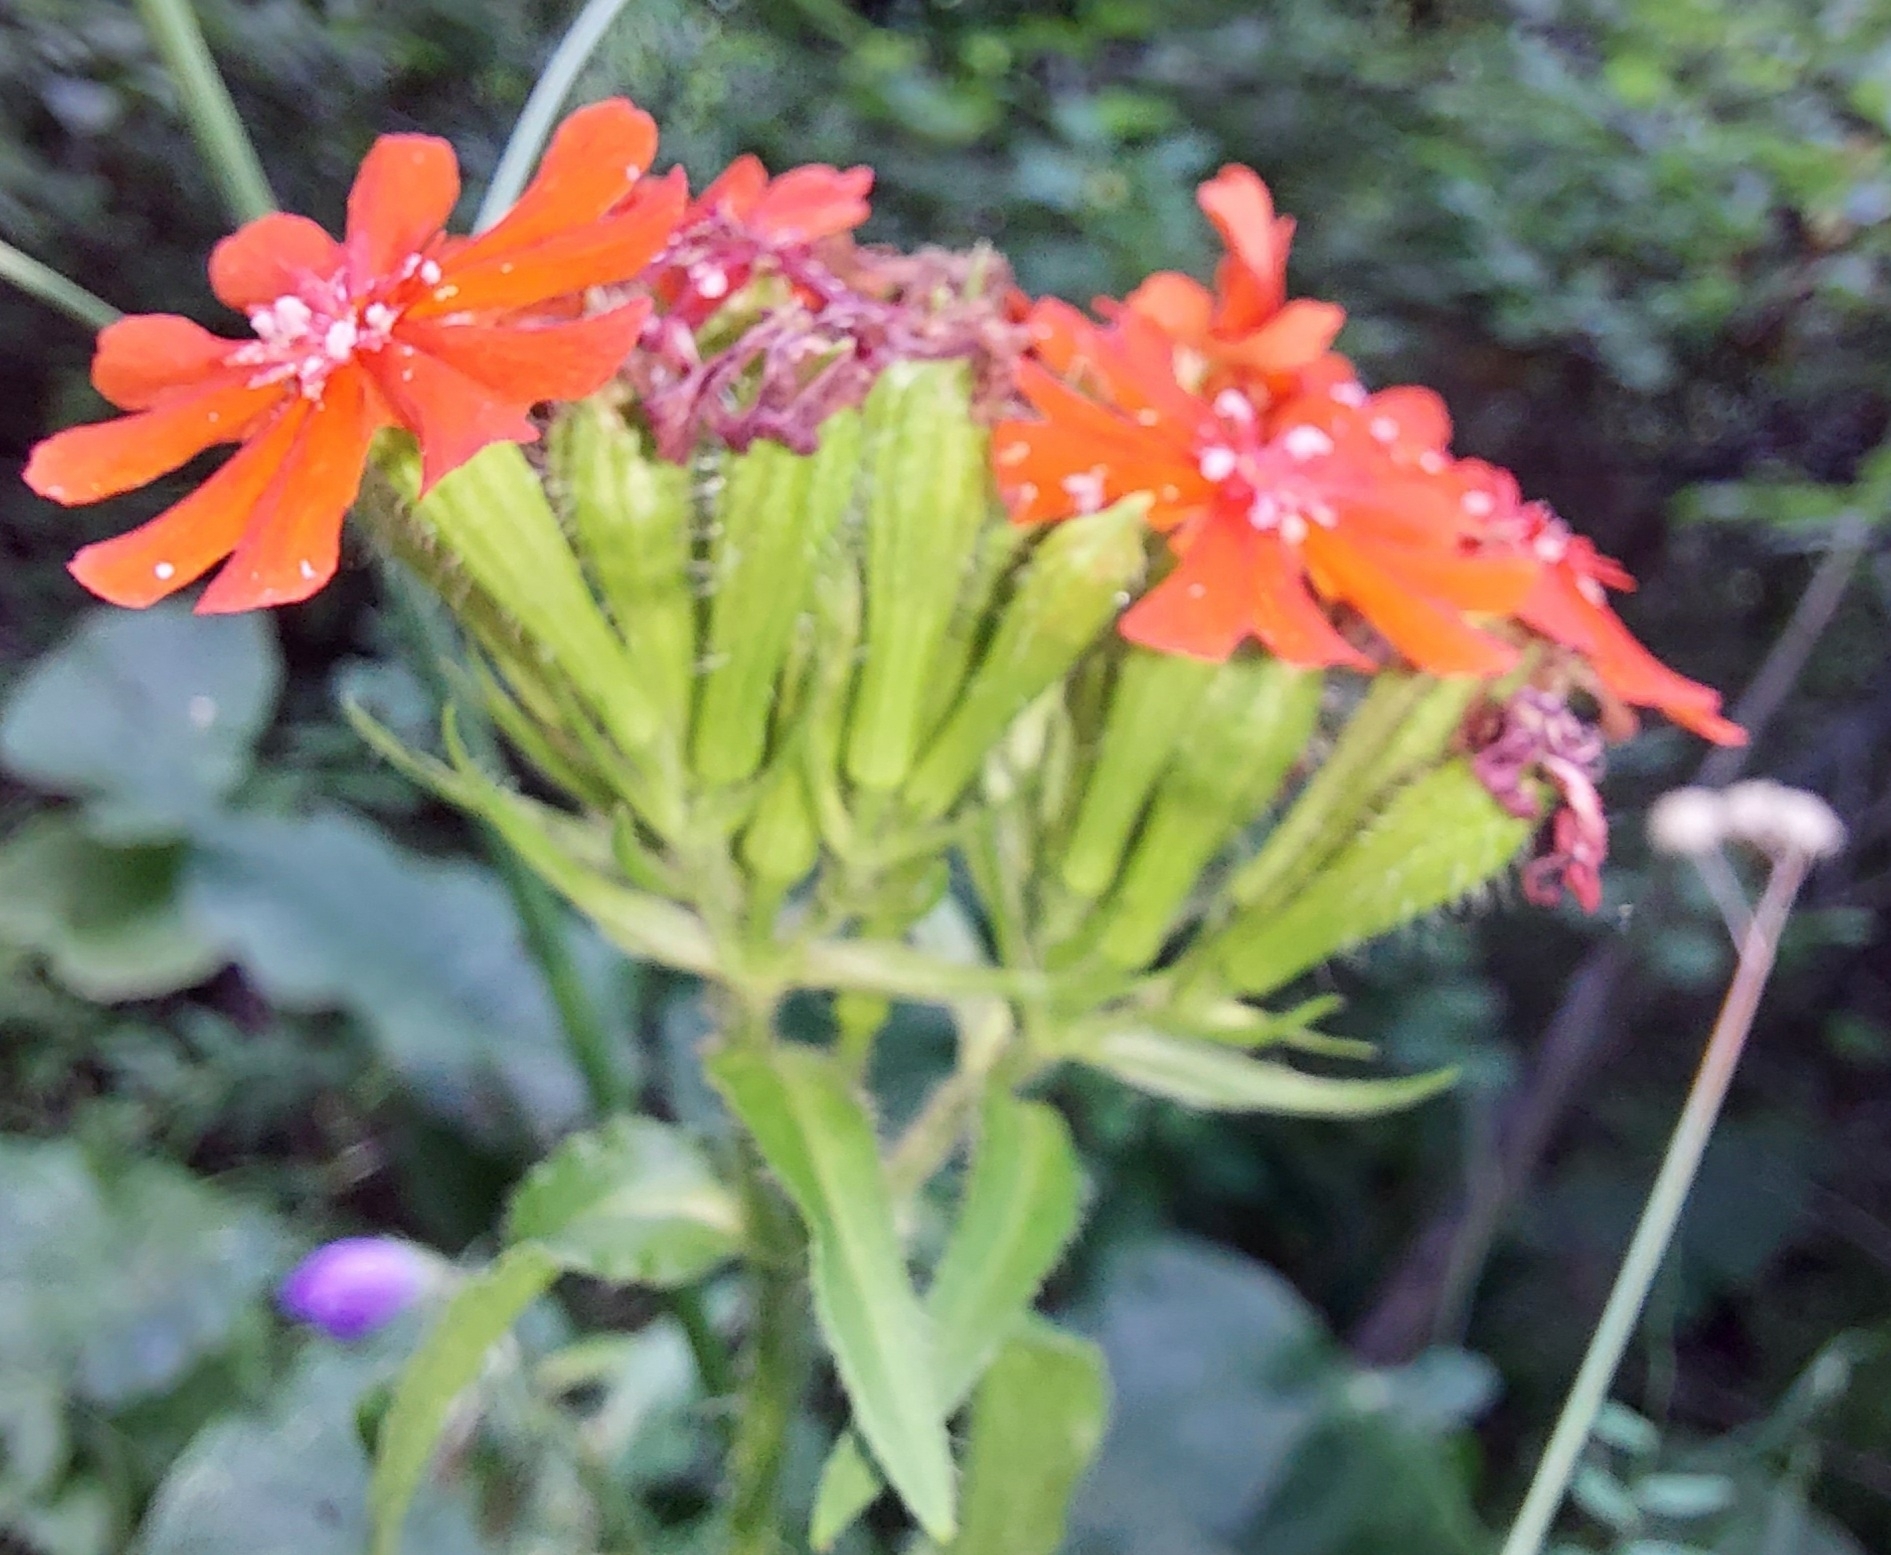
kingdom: Plantae
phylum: Tracheophyta
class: Magnoliopsida
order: Caryophyllales
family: Caryophyllaceae
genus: Silene
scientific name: Silene chalcedonica
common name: Maltese-cross
